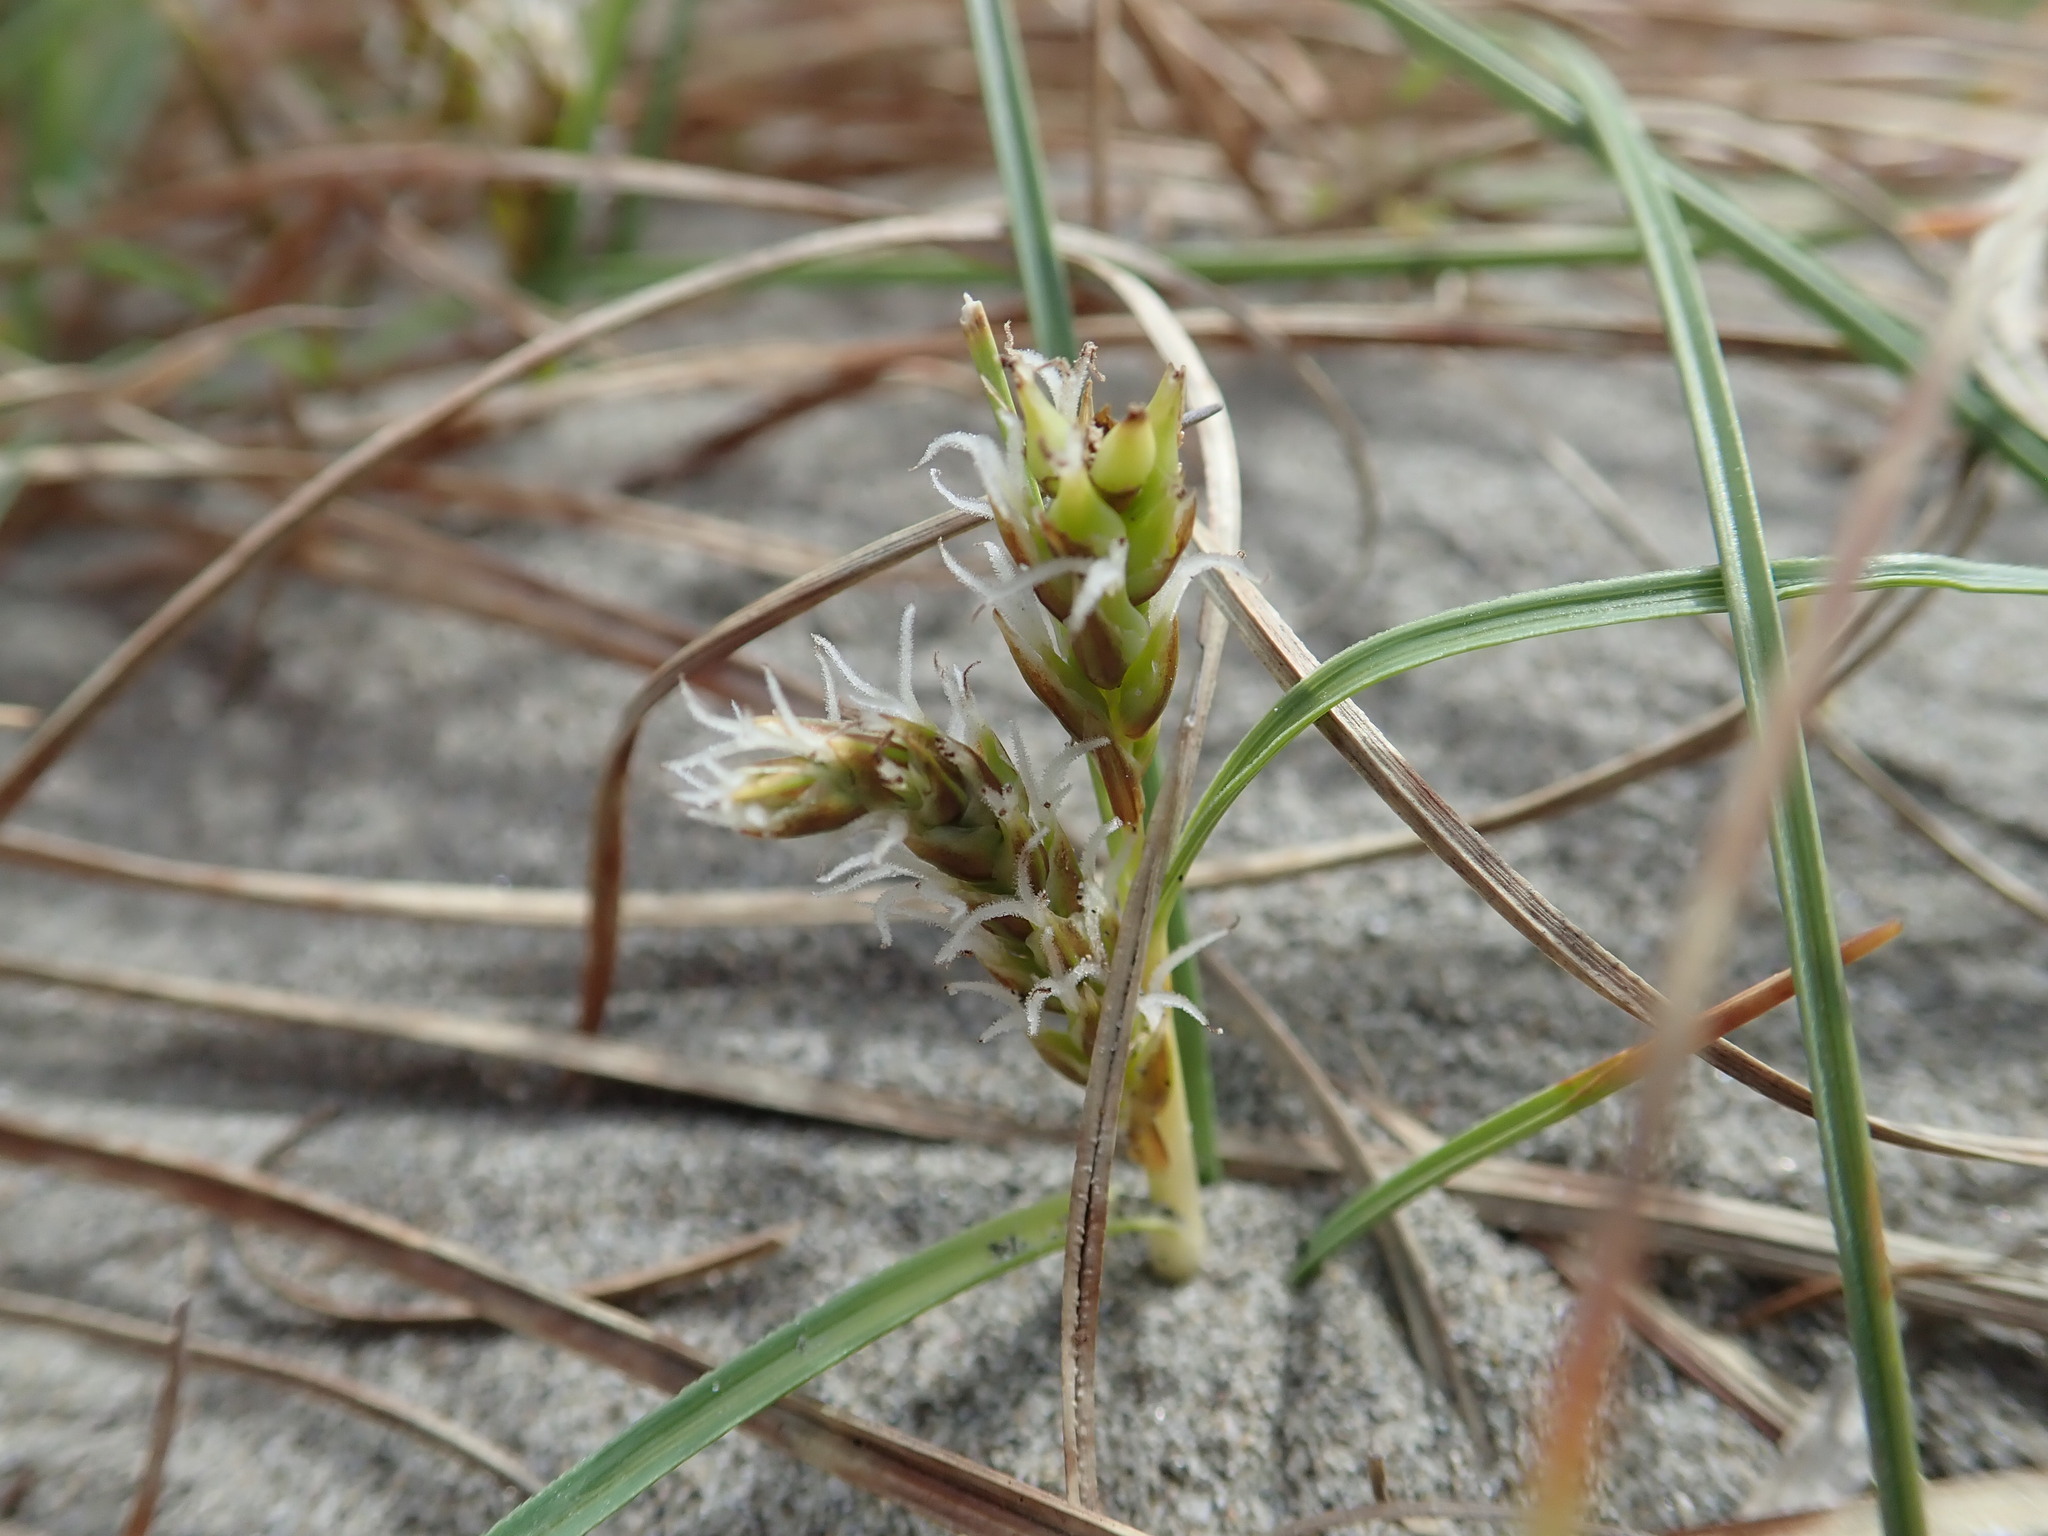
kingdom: Plantae
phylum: Tracheophyta
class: Liliopsida
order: Poales
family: Cyperaceae
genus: Carex
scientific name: Carex pumila
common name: Dwarf sedge
